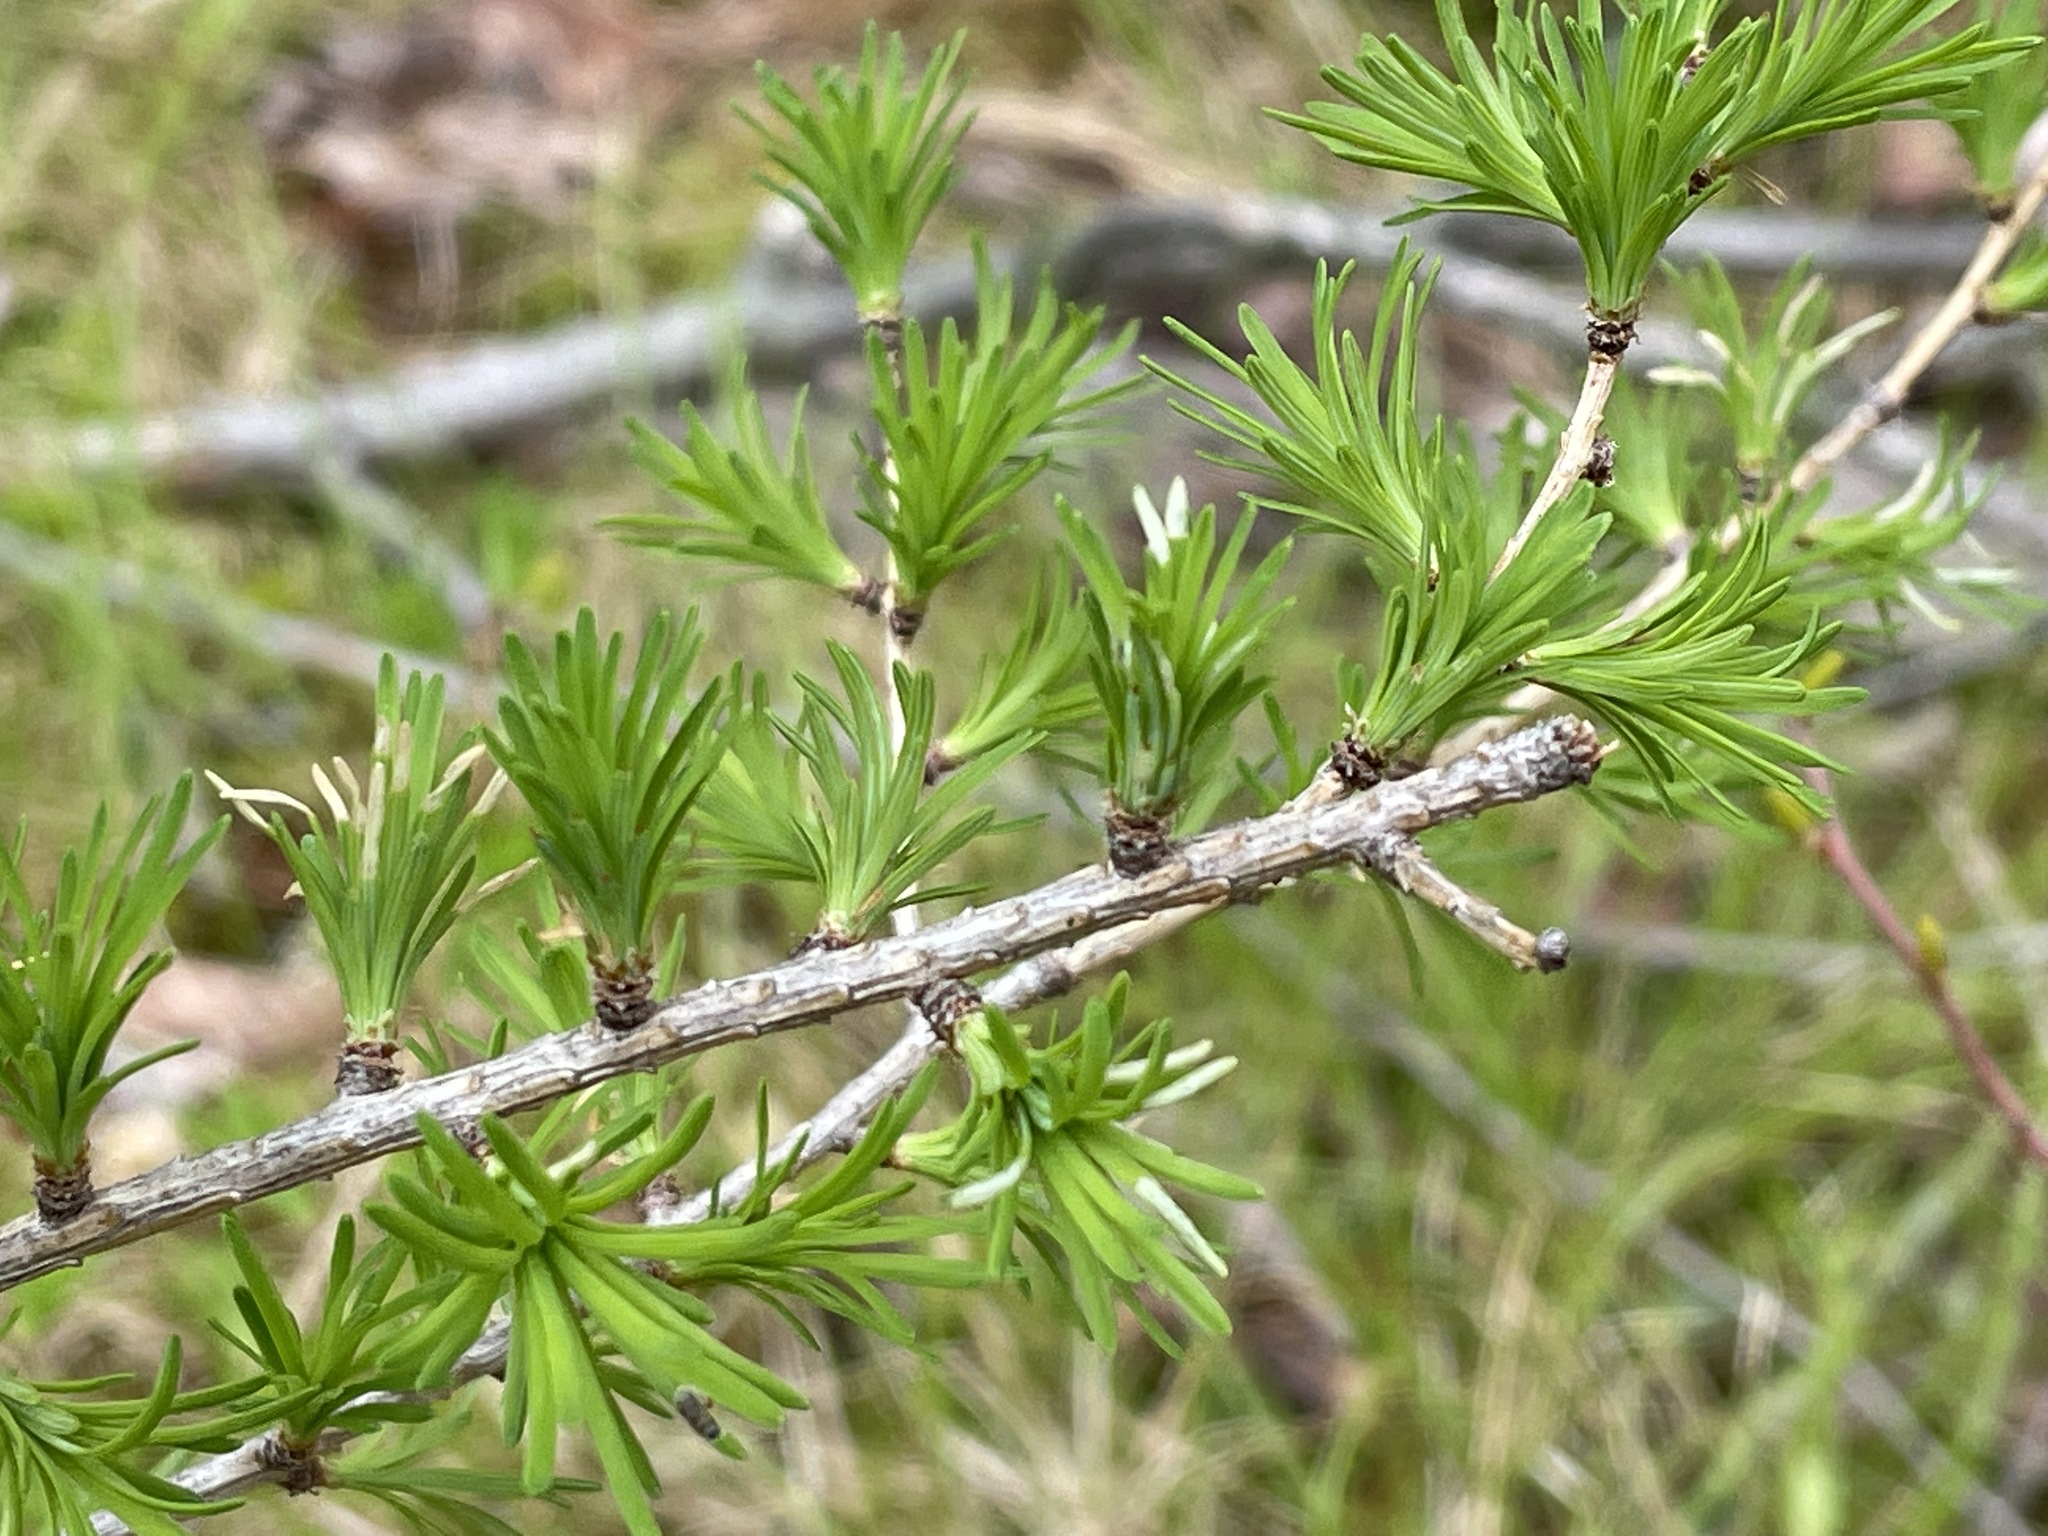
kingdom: Plantae
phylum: Tracheophyta
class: Pinopsida
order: Pinales
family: Pinaceae
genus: Larix
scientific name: Larix laricina
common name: American larch
